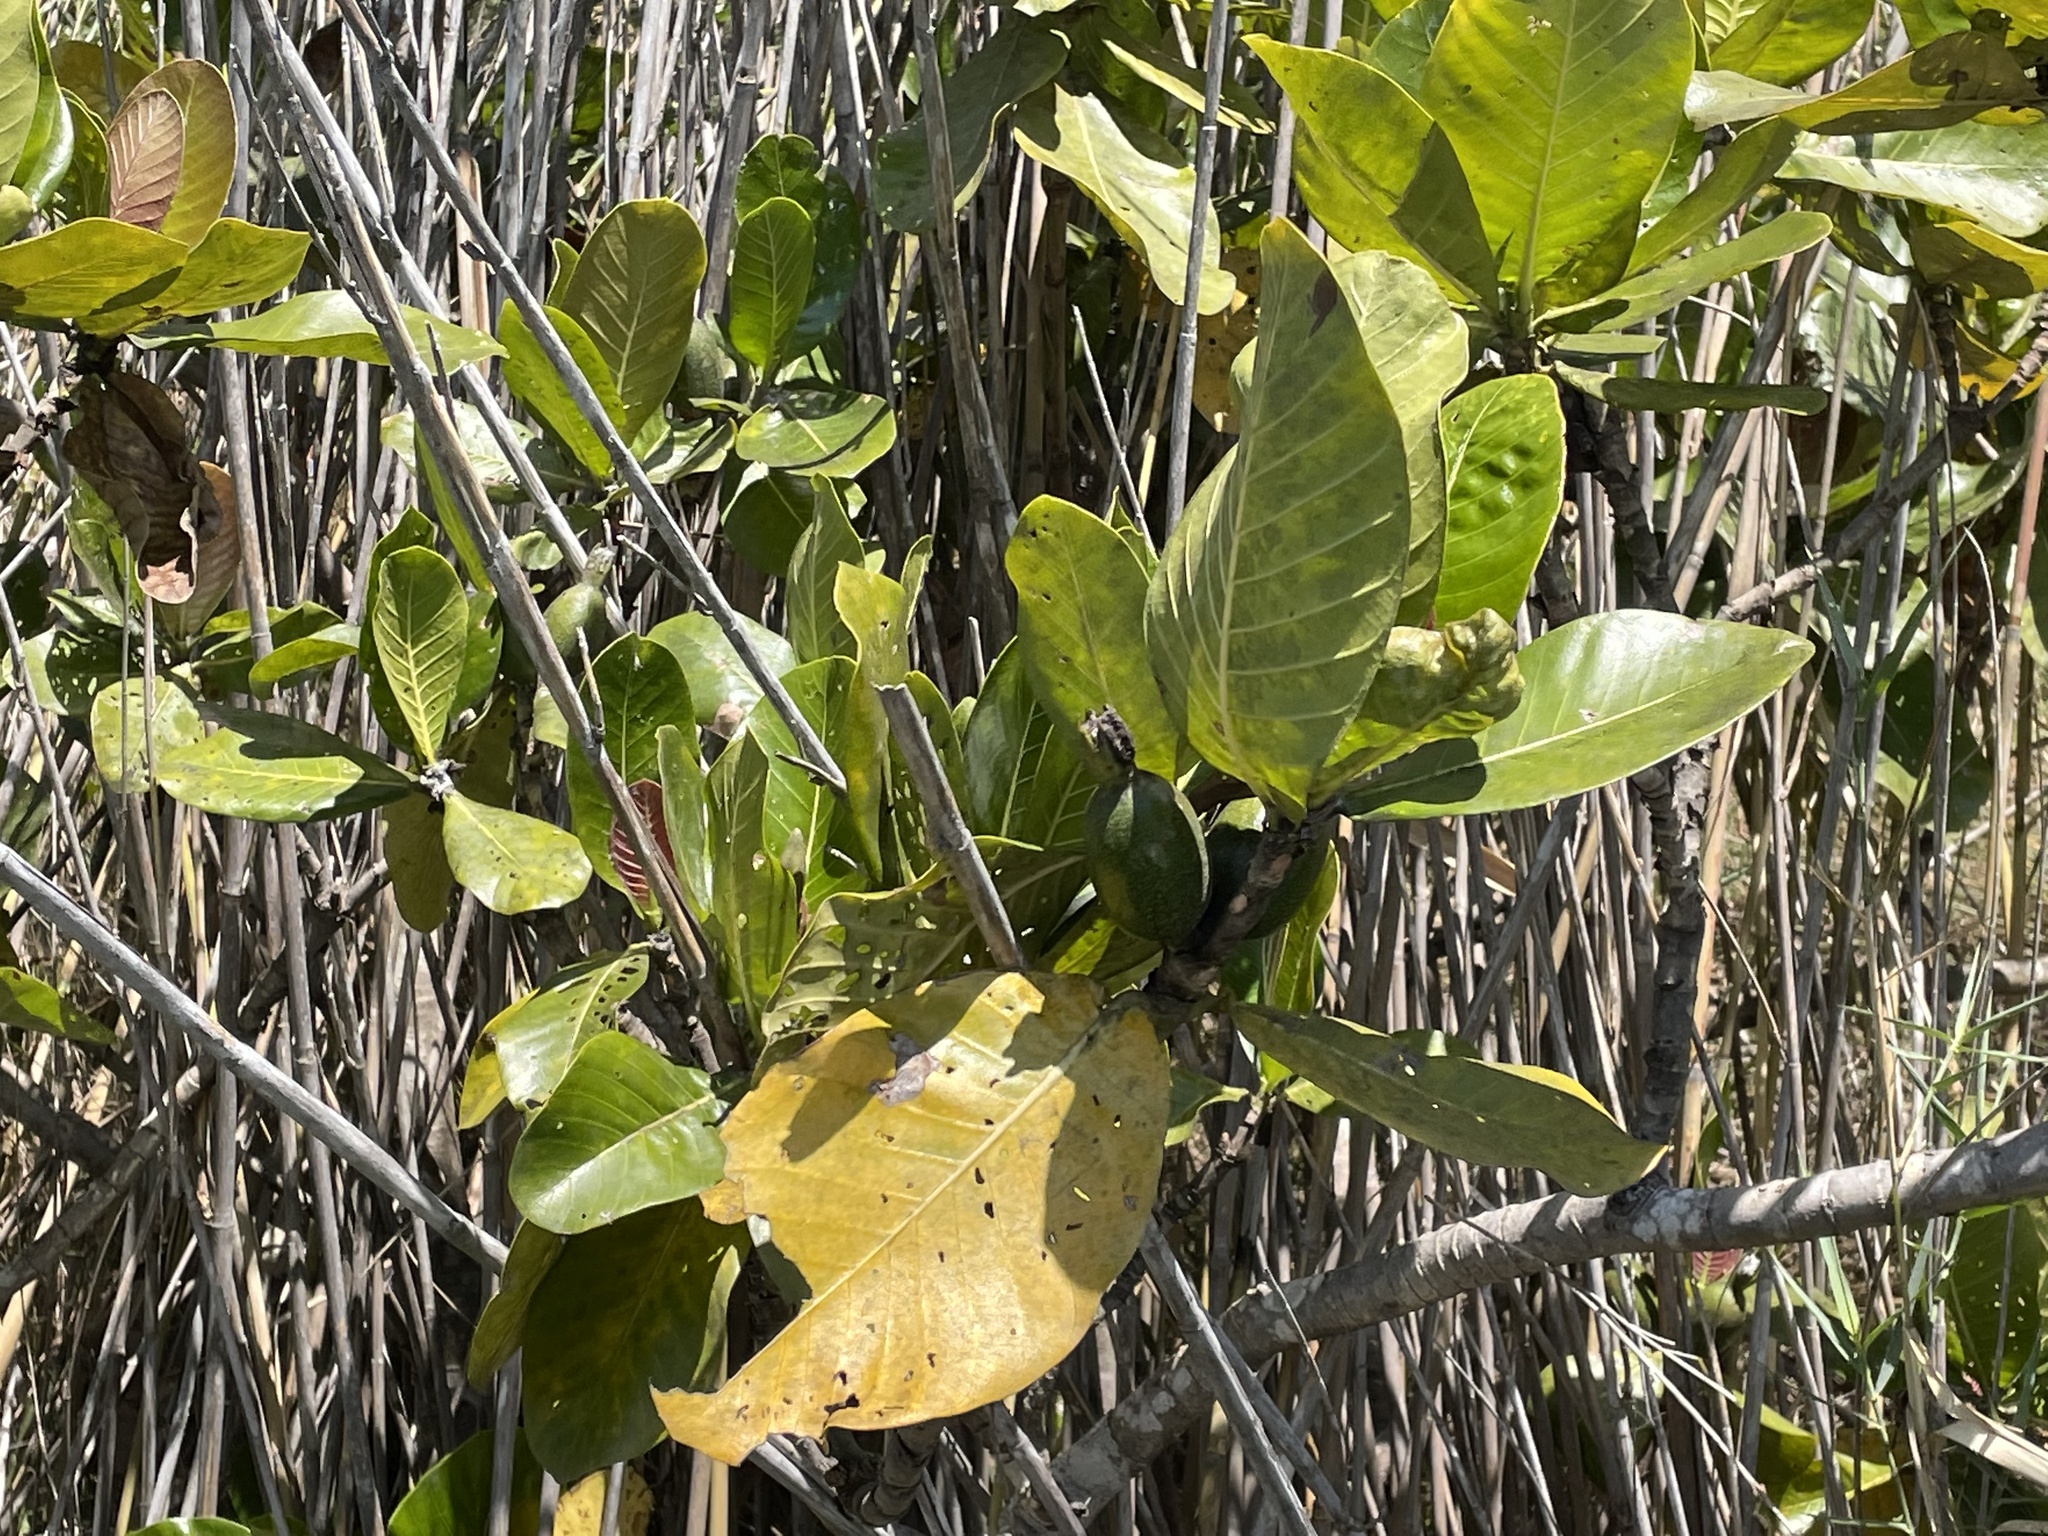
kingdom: Plantae
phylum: Tracheophyta
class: Magnoliopsida
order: Gentianales
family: Rubiaceae
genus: Gardenia
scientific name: Gardenia imperialis
